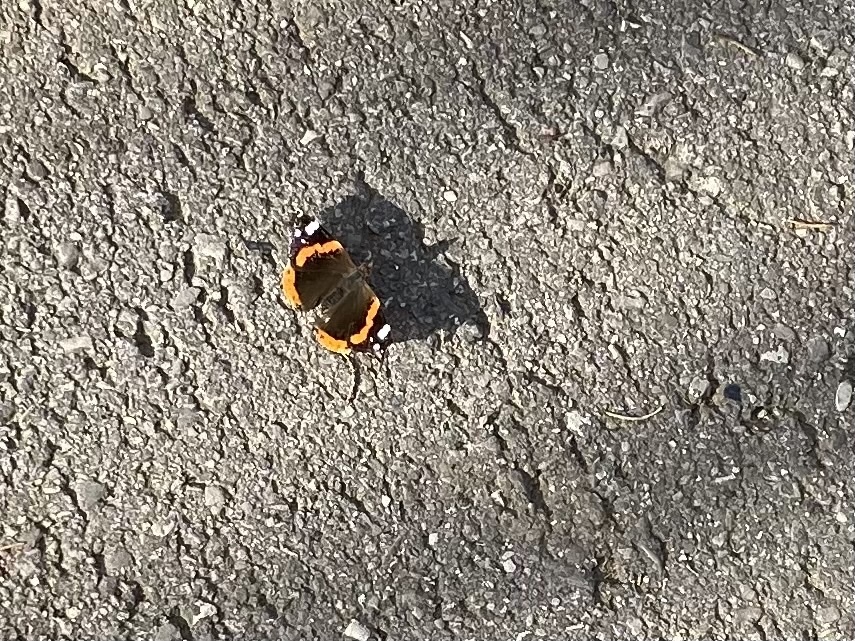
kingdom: Animalia
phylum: Arthropoda
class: Insecta
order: Lepidoptera
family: Nymphalidae
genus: Vanessa
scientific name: Vanessa atalanta
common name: Red admiral
